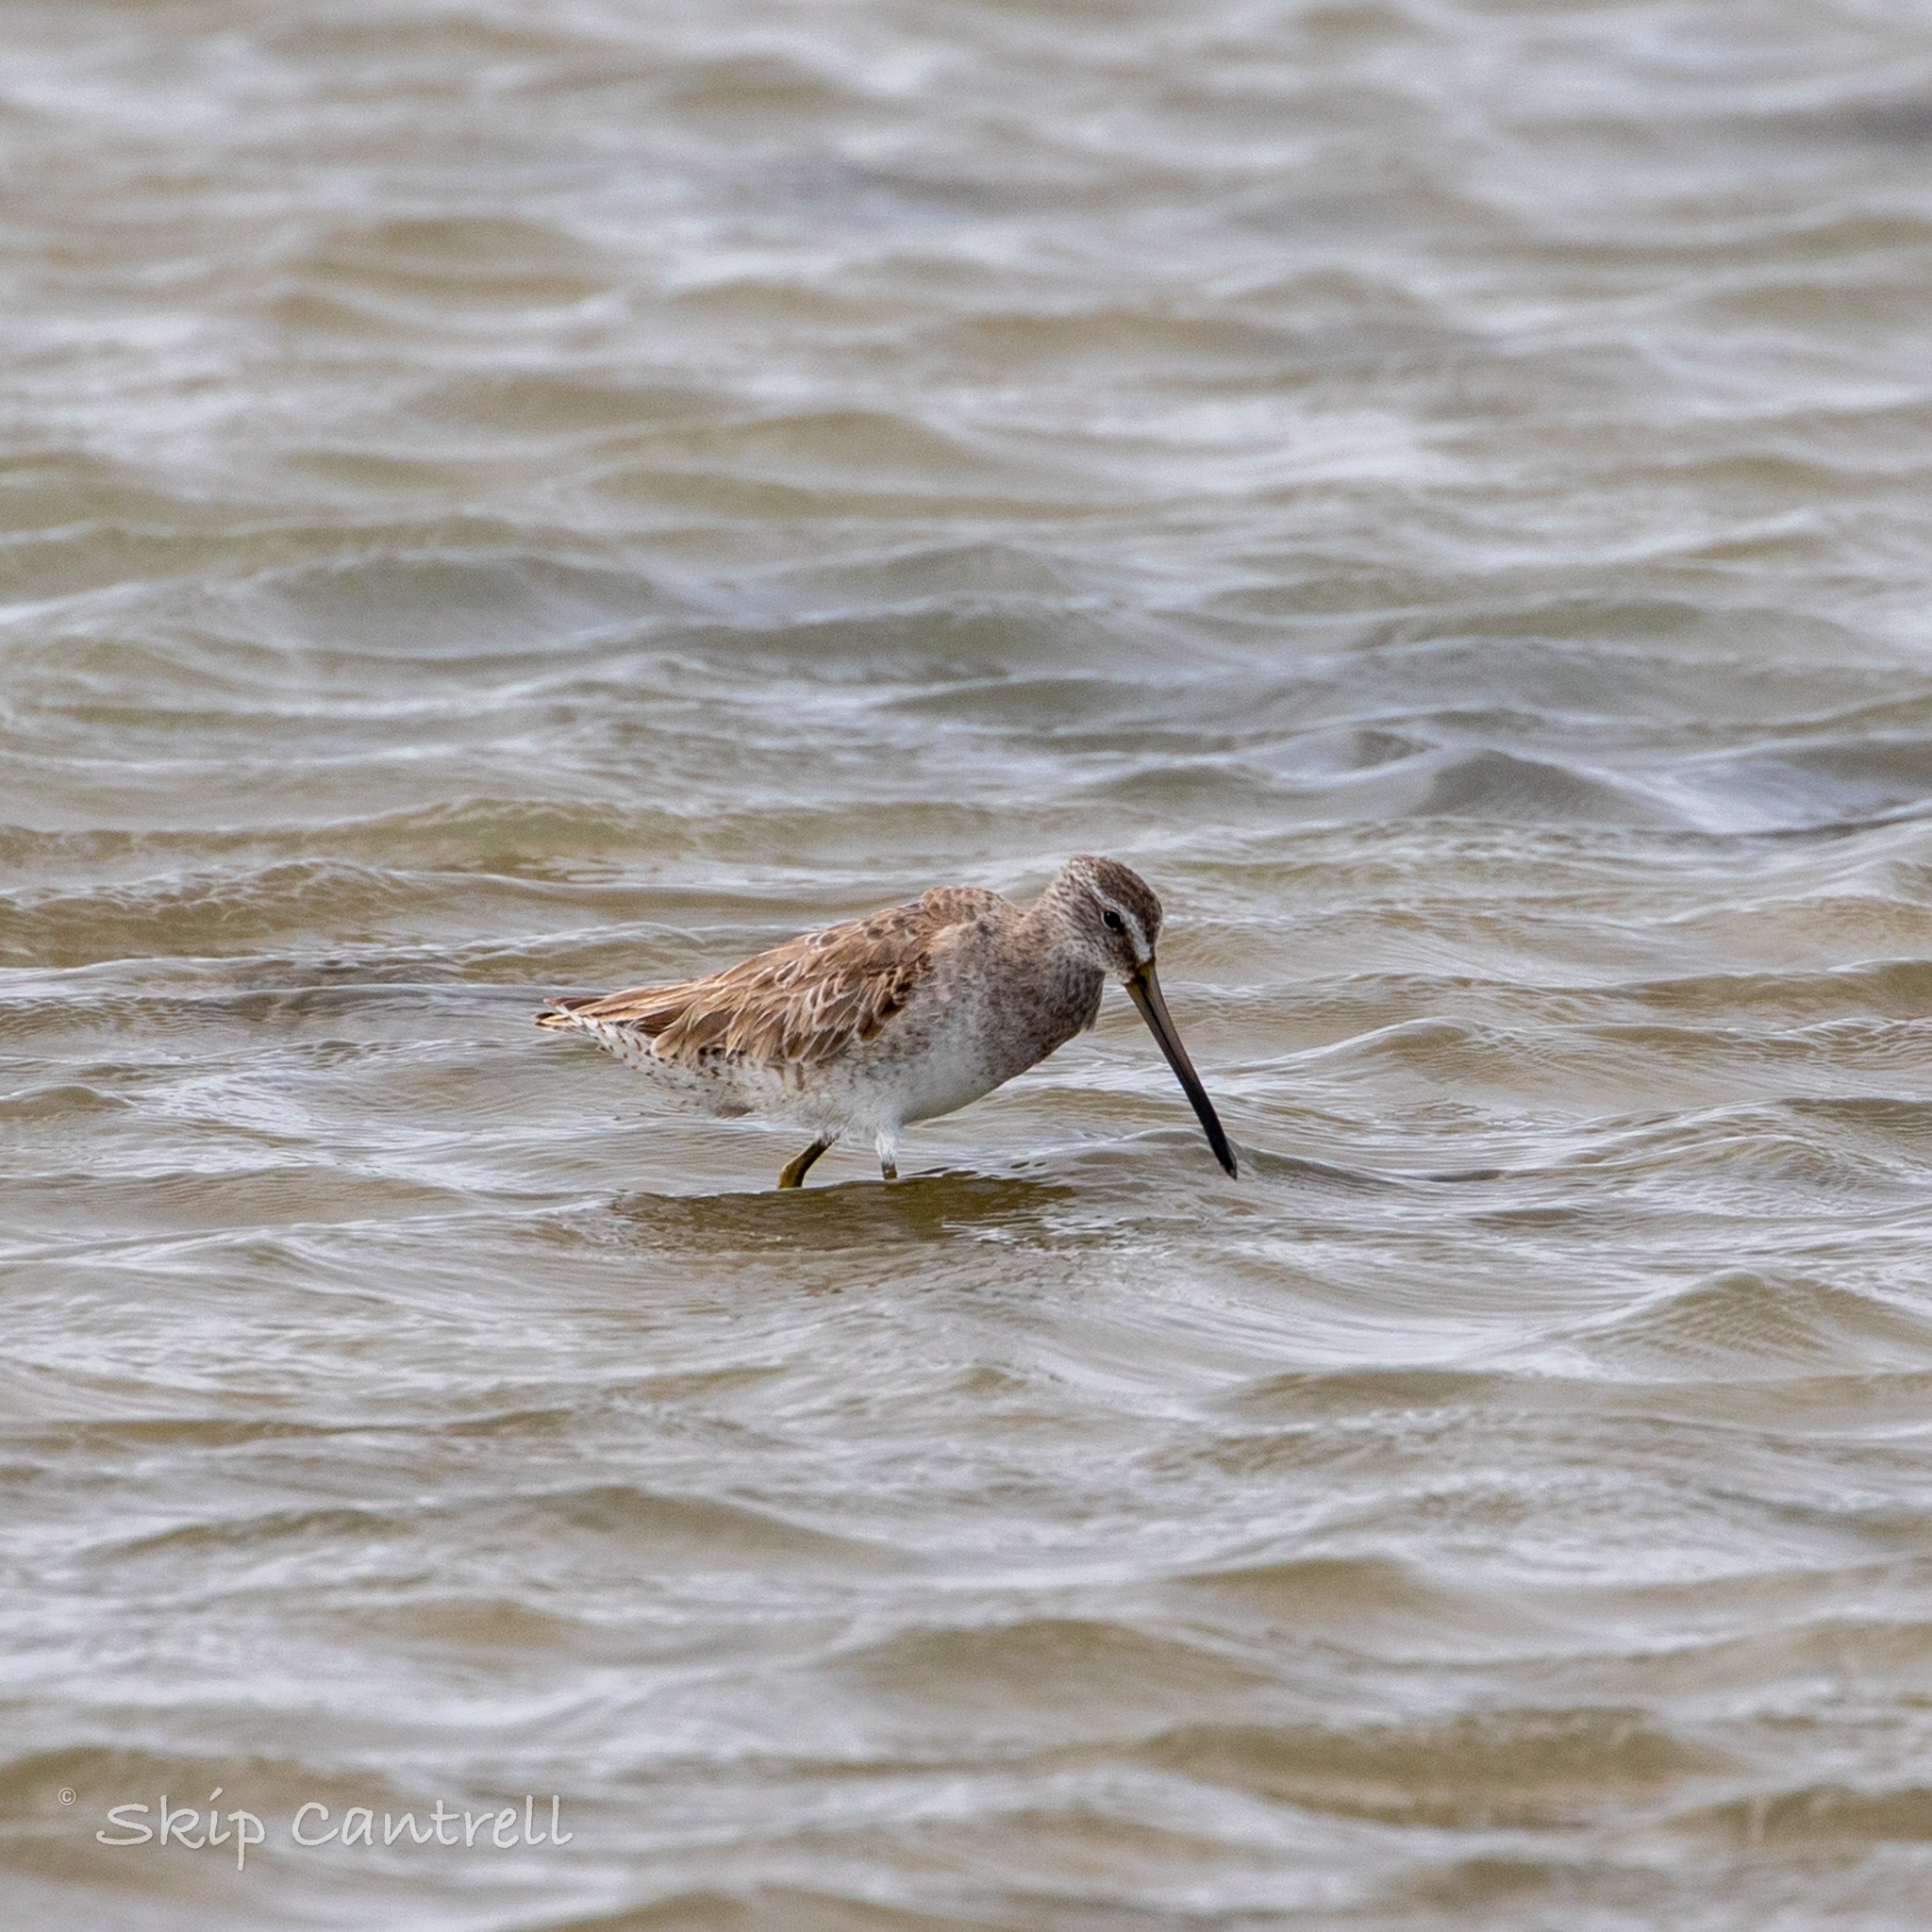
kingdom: Animalia
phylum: Chordata
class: Aves
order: Charadriiformes
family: Scolopacidae
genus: Limnodromus
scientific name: Limnodromus griseus
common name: Short-billed dowitcher
